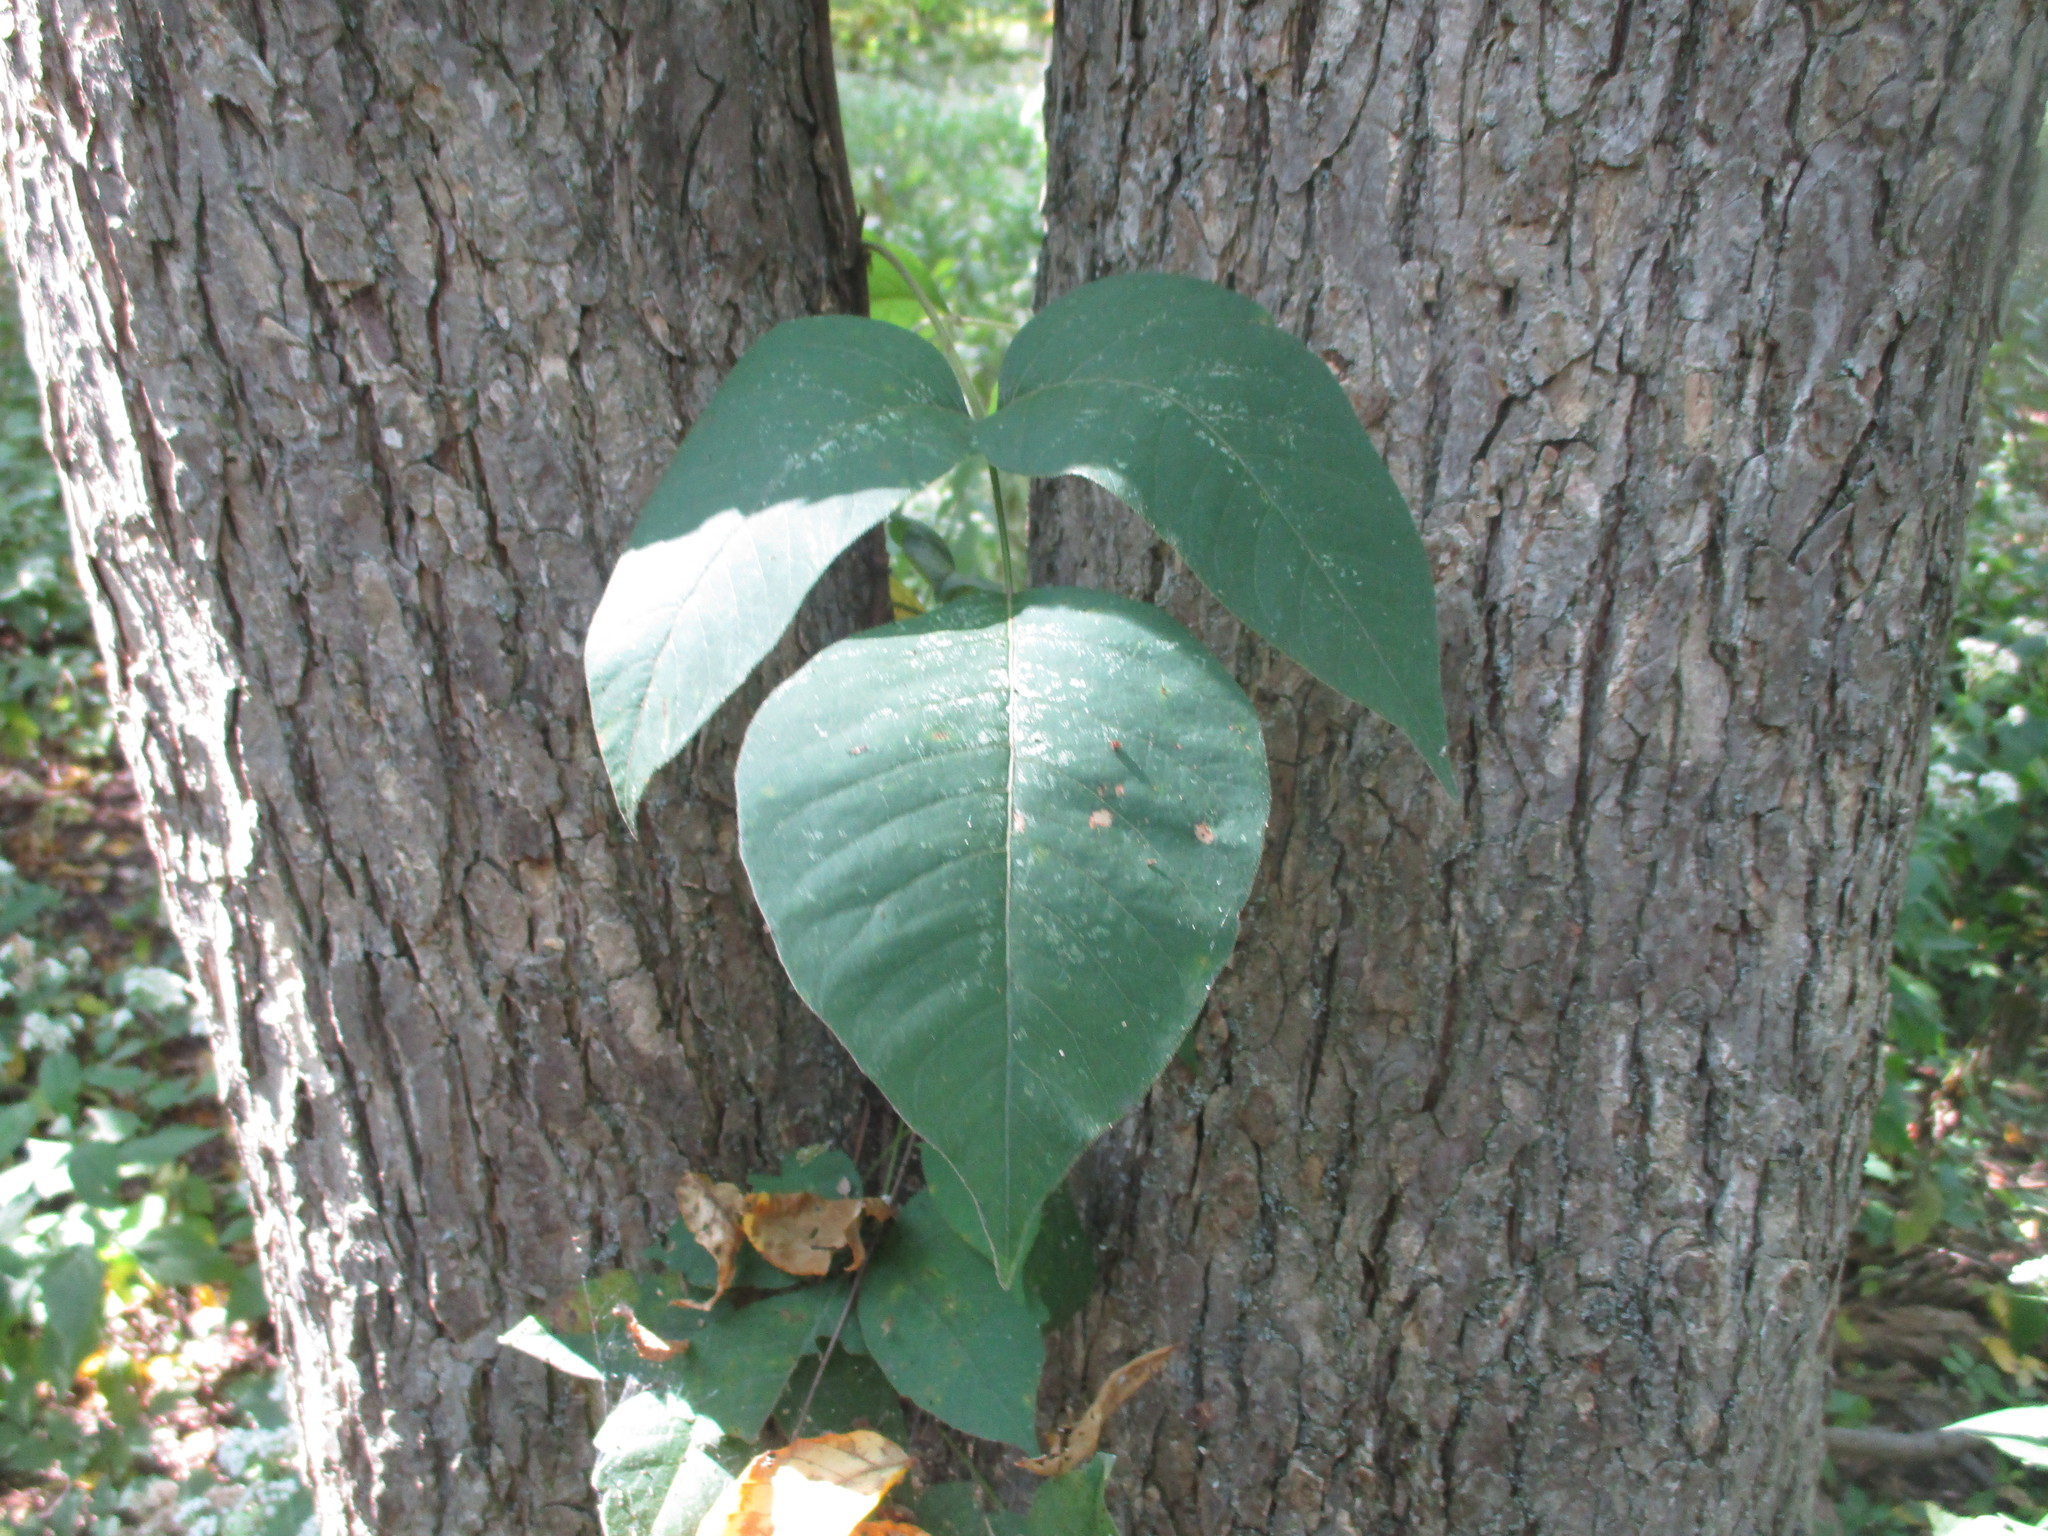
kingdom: Plantae
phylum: Tracheophyta
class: Magnoliopsida
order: Rosales
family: Ulmaceae
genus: Ulmus
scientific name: Ulmus americana
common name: American elm
